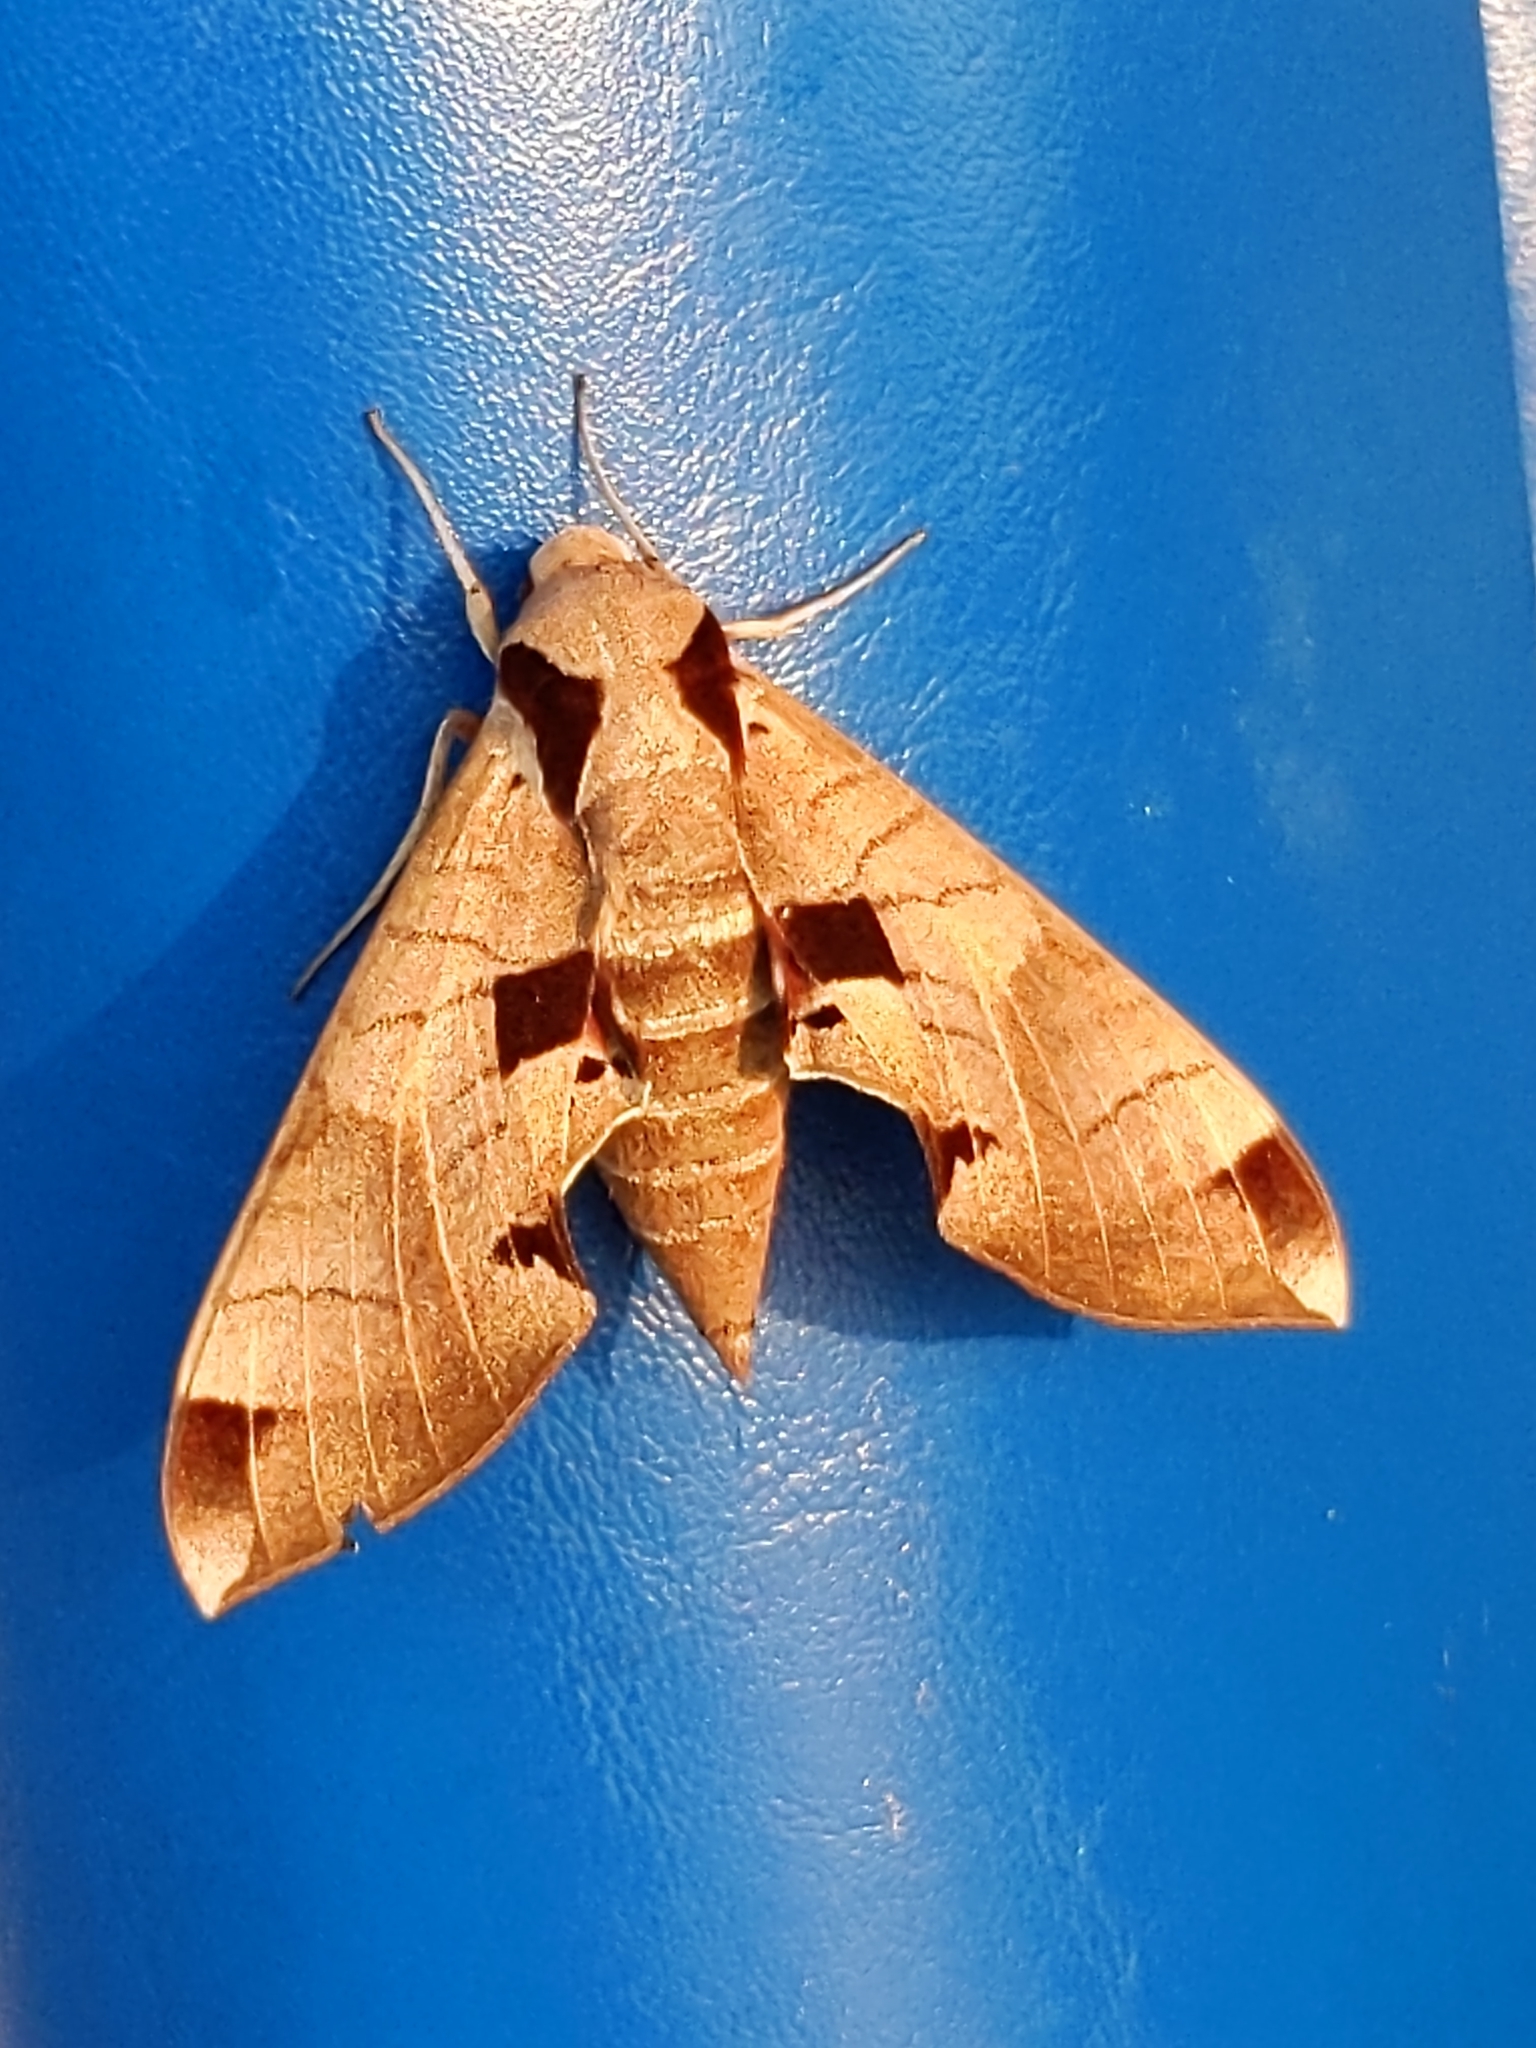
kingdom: Animalia
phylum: Arthropoda
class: Insecta
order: Lepidoptera
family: Sphingidae
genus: Eumorpha
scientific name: Eumorpha achemon
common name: Achemon sphinx
